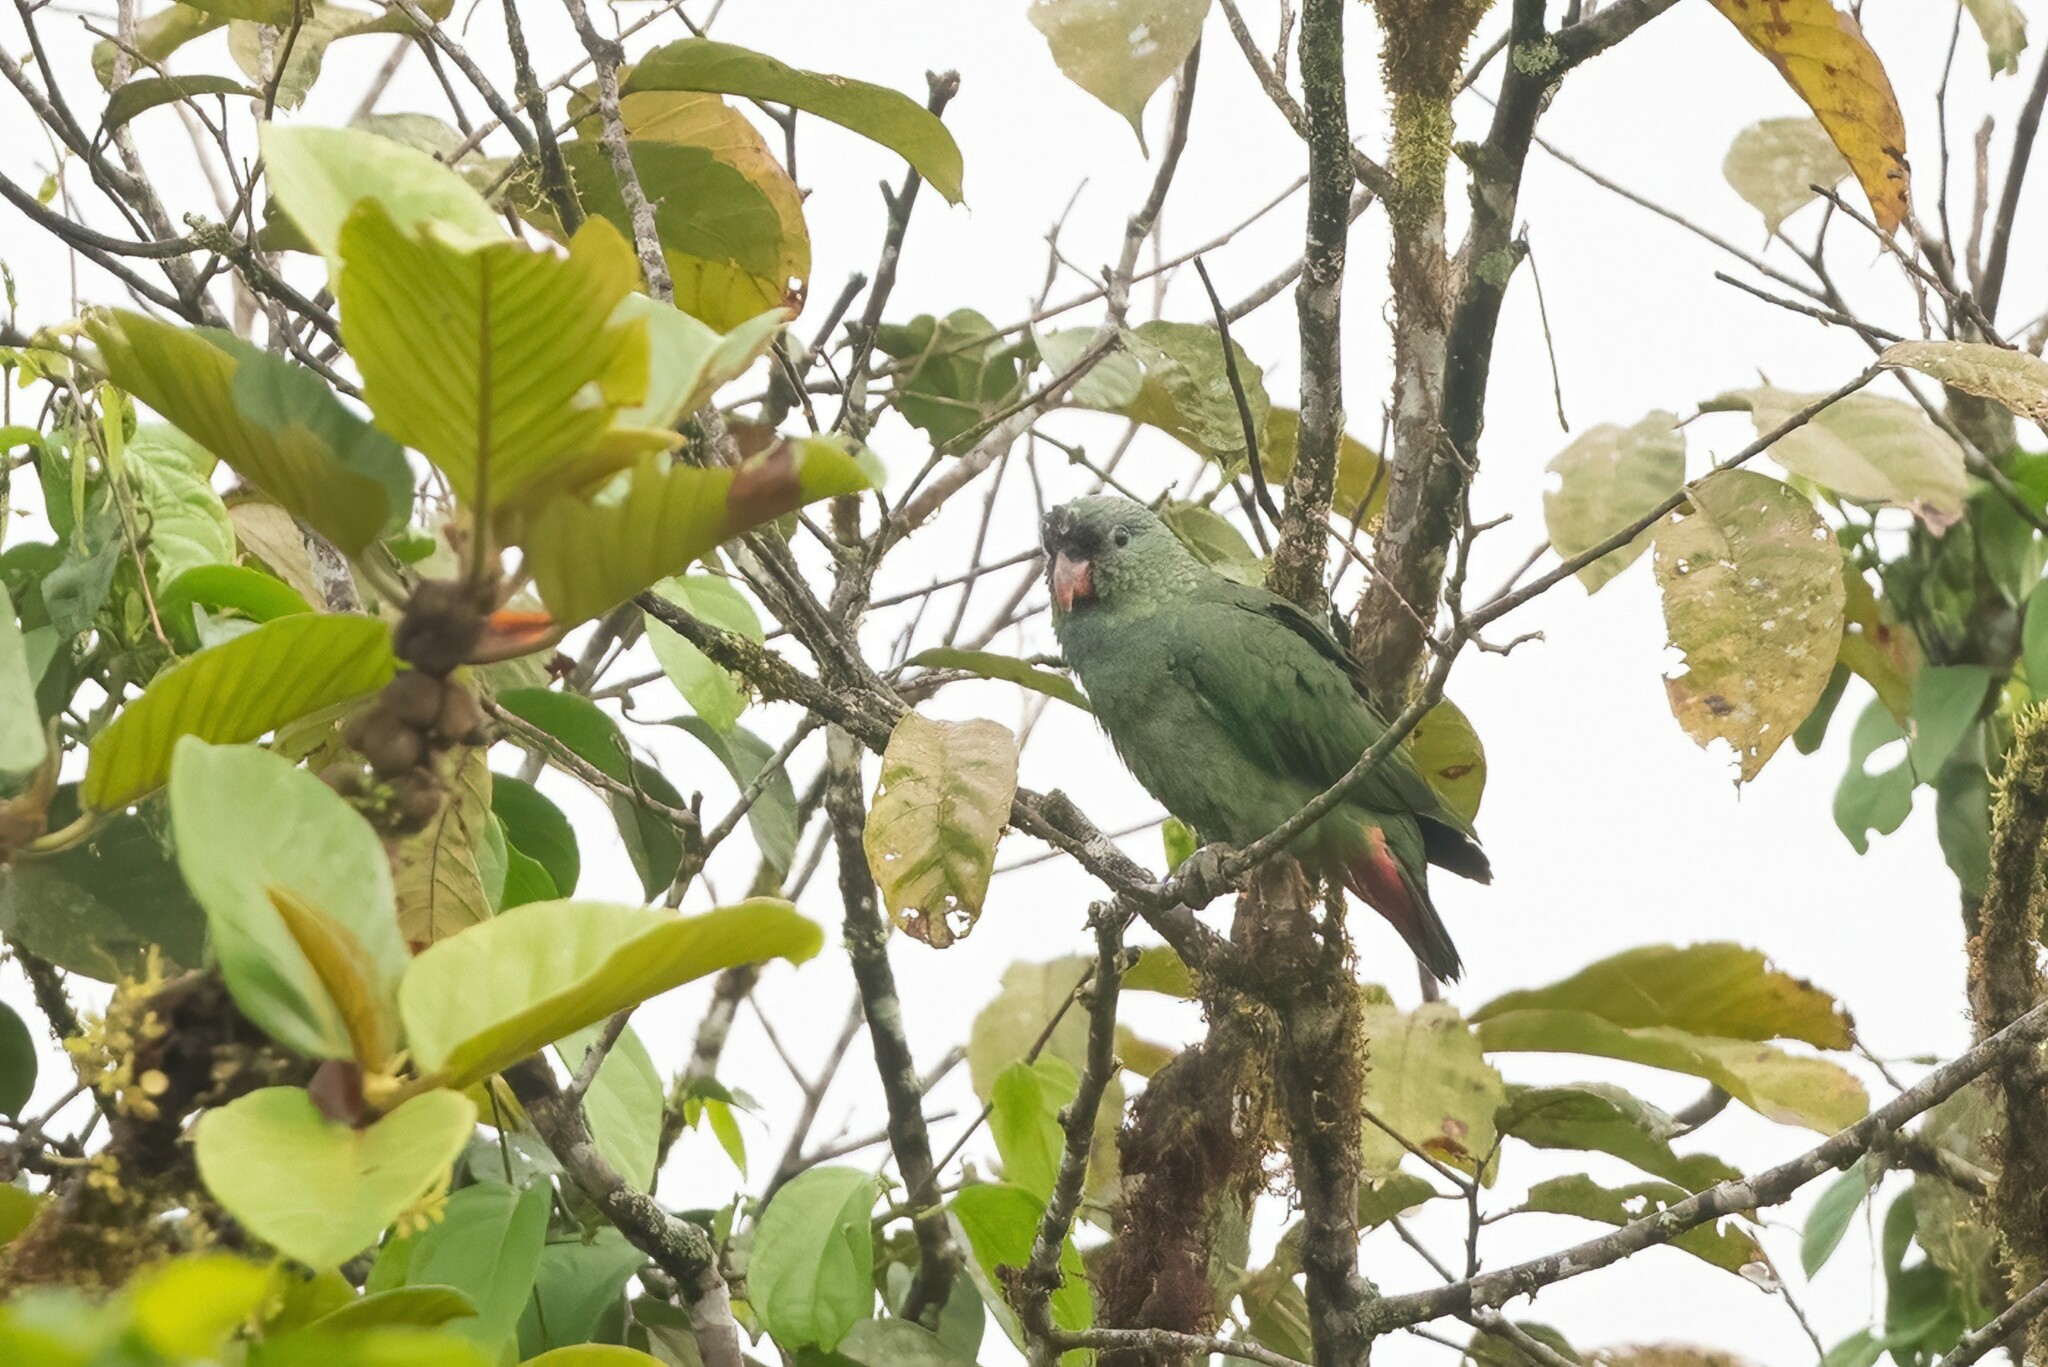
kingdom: Animalia
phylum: Chordata
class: Aves
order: Psittaciformes
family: Psittacidae
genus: Pionus
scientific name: Pionus sordidus
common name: Red-billed parrot
